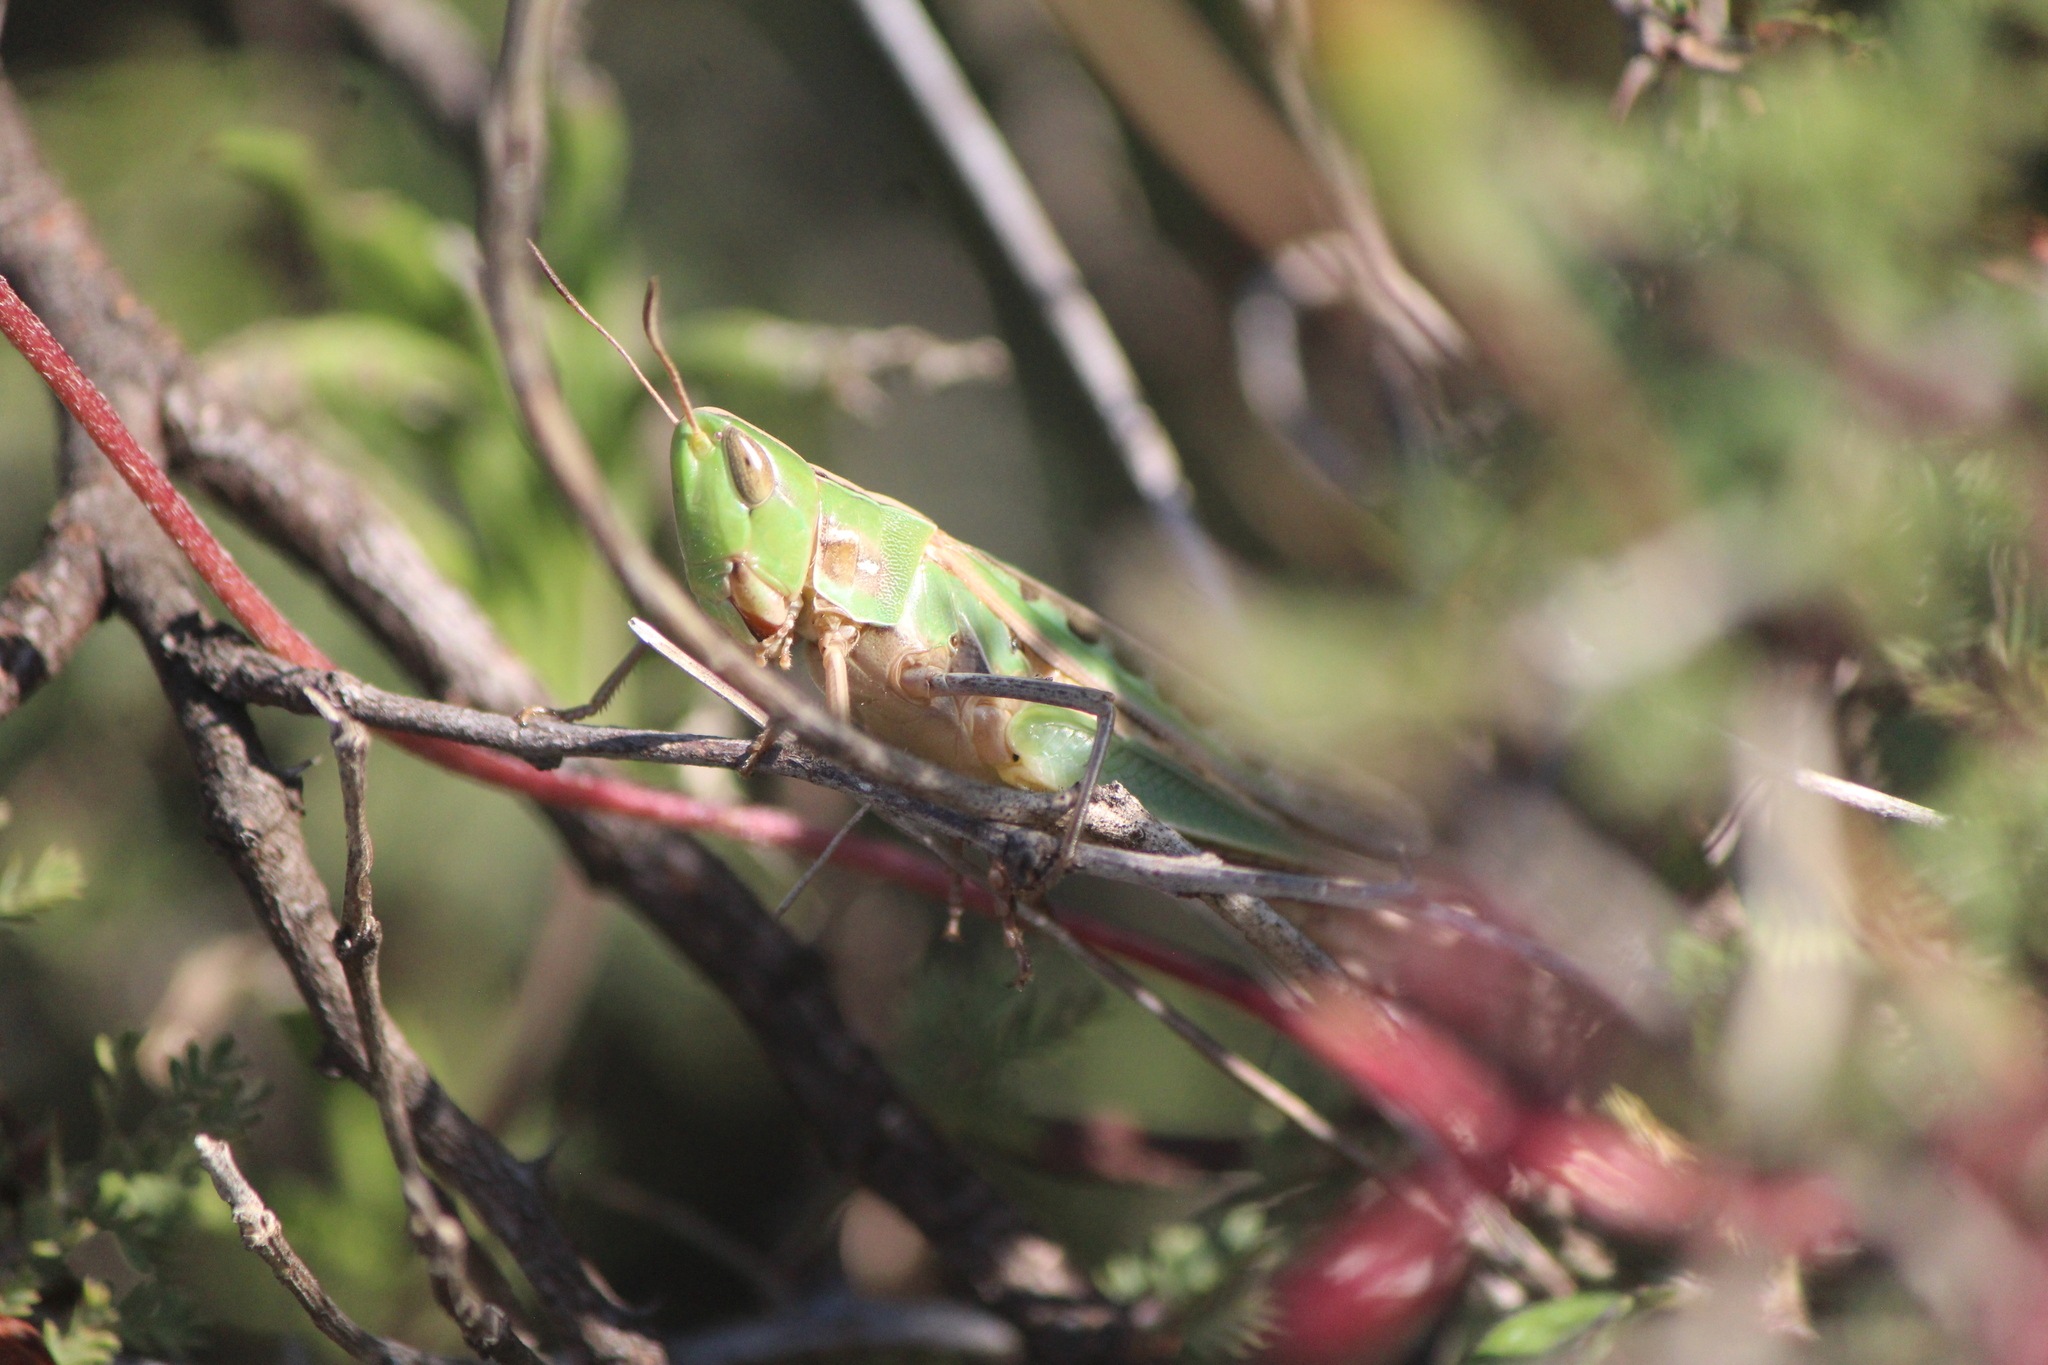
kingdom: Animalia
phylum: Arthropoda
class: Insecta
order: Orthoptera
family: Acrididae
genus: Syrbula
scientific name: Syrbula admirabilis
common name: Handsome grasshopper
